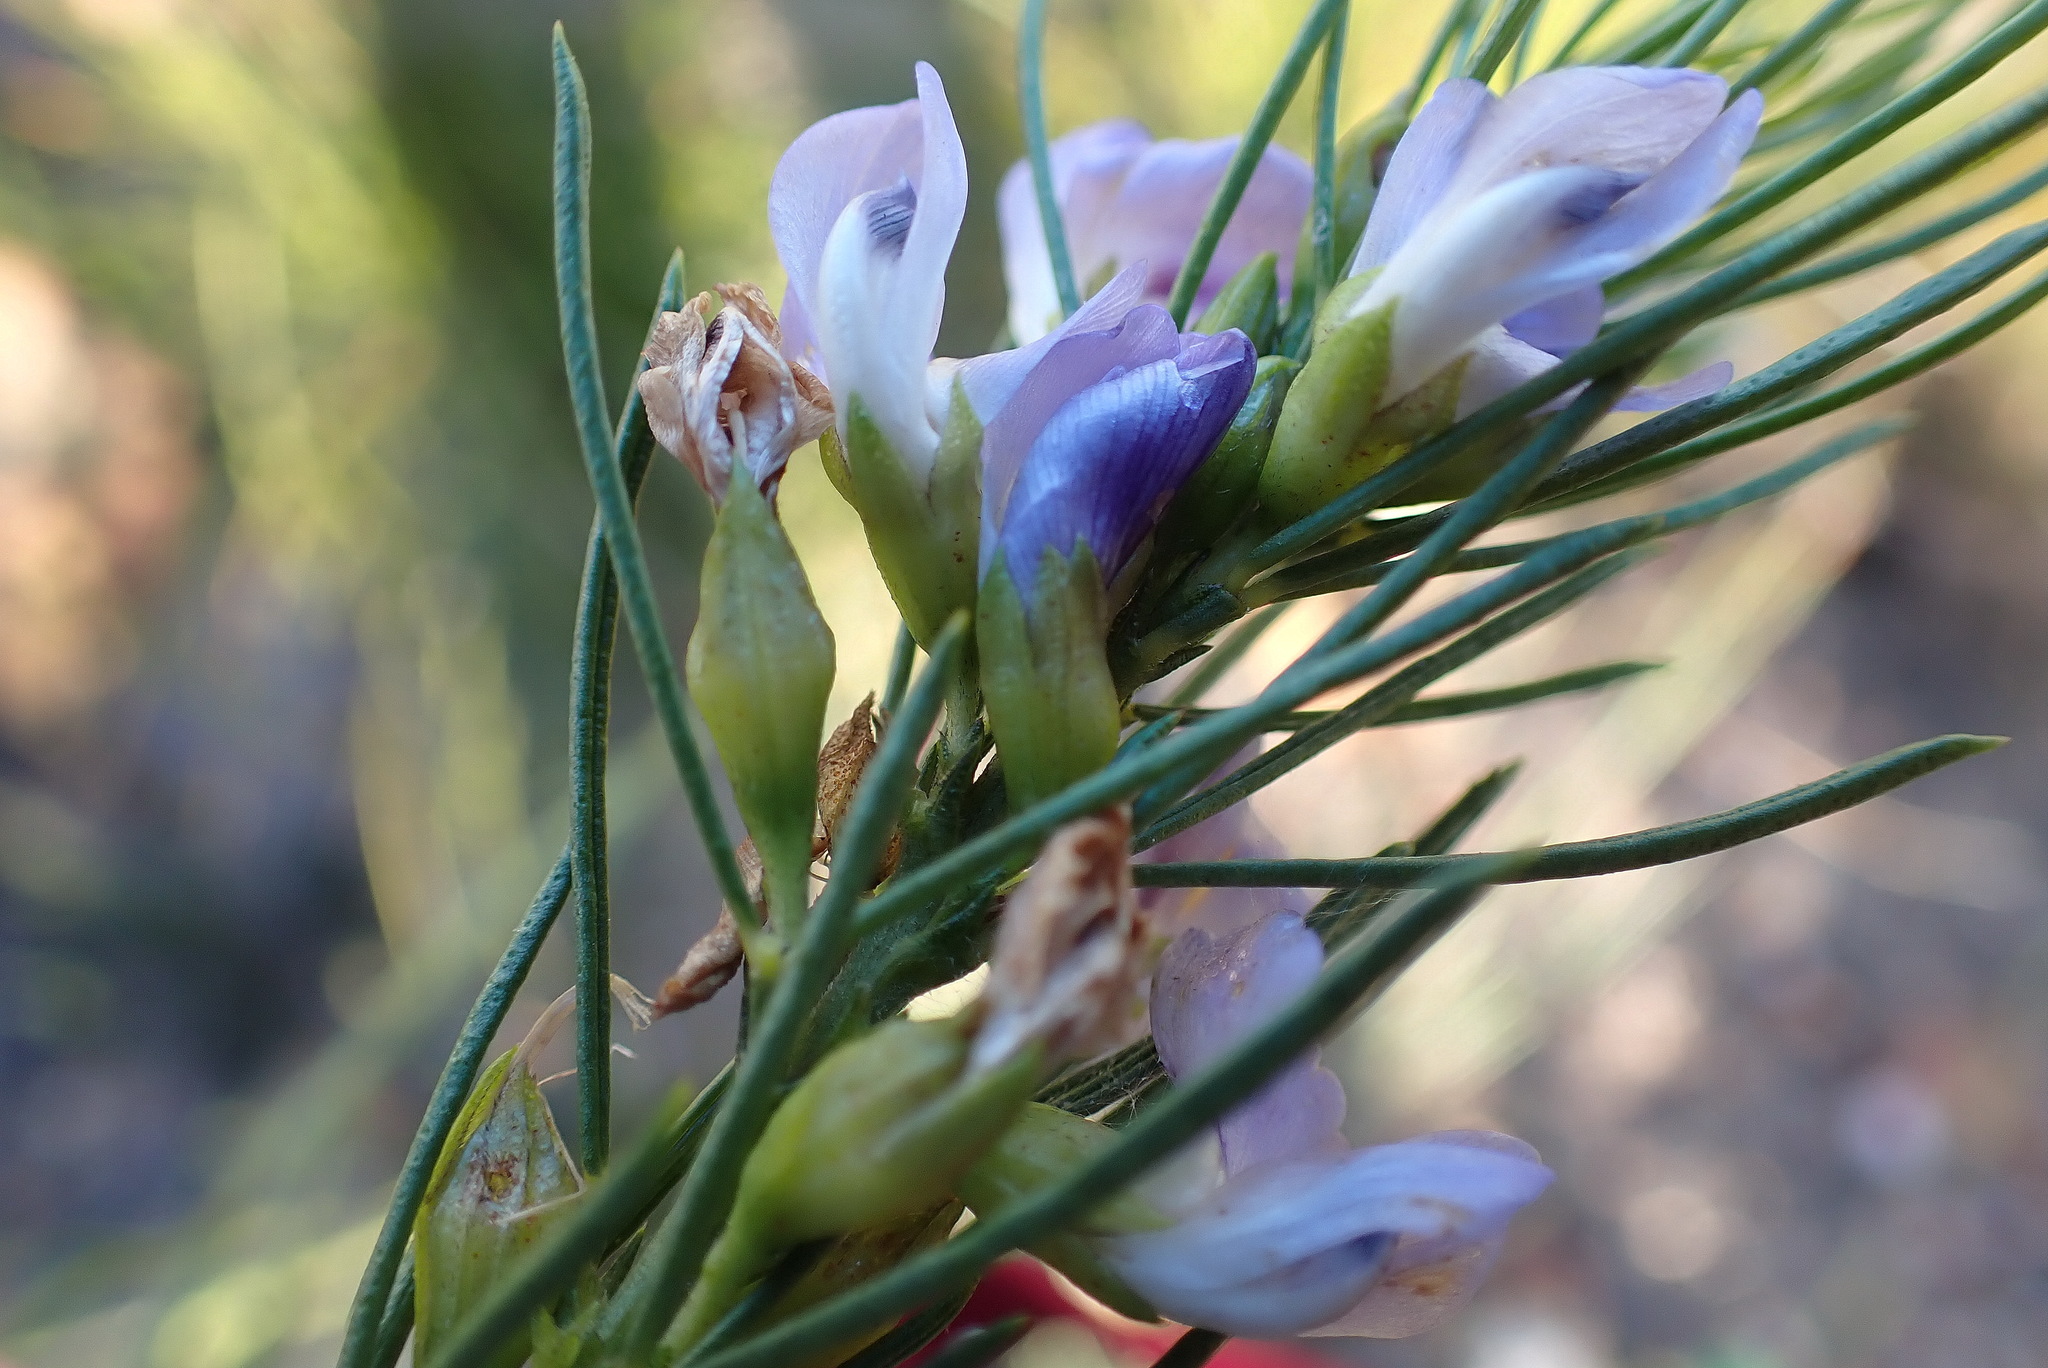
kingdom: Plantae
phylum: Tracheophyta
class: Magnoliopsida
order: Fabales
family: Fabaceae
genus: Psoralea
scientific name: Psoralea sordida
